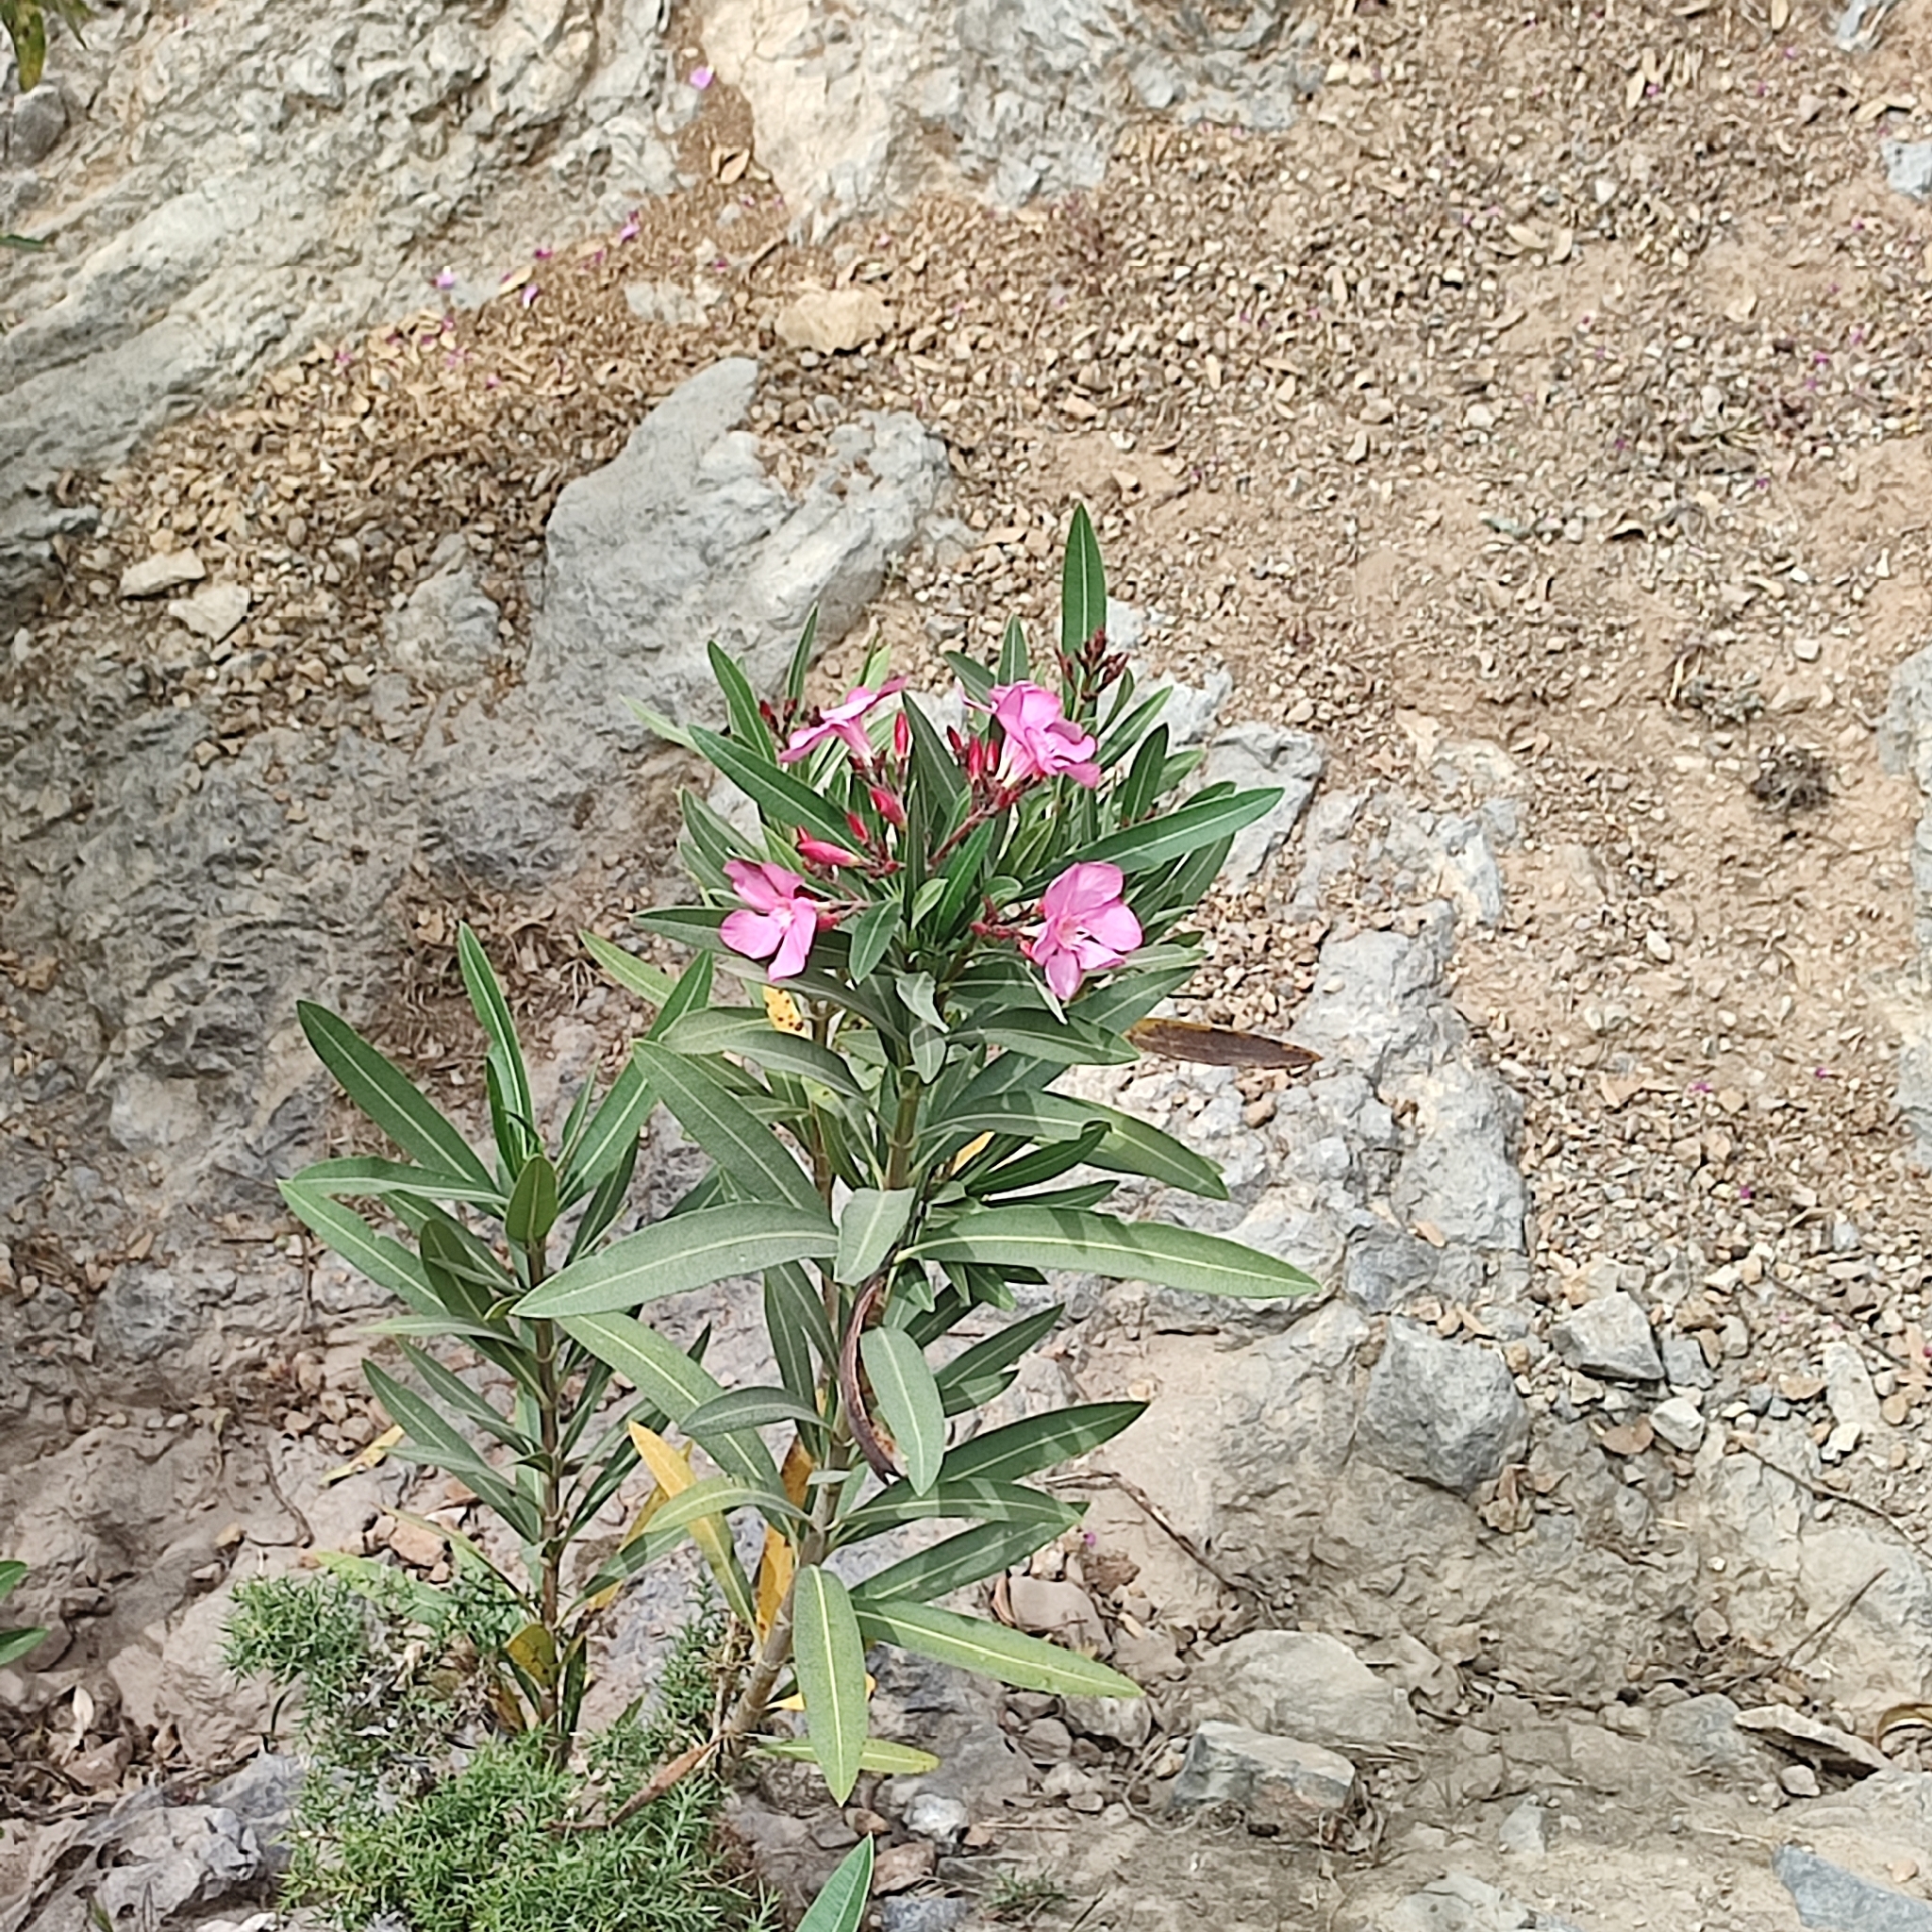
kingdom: Plantae
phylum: Tracheophyta
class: Magnoliopsida
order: Gentianales
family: Apocynaceae
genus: Nerium
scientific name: Nerium oleander
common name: Oleander
